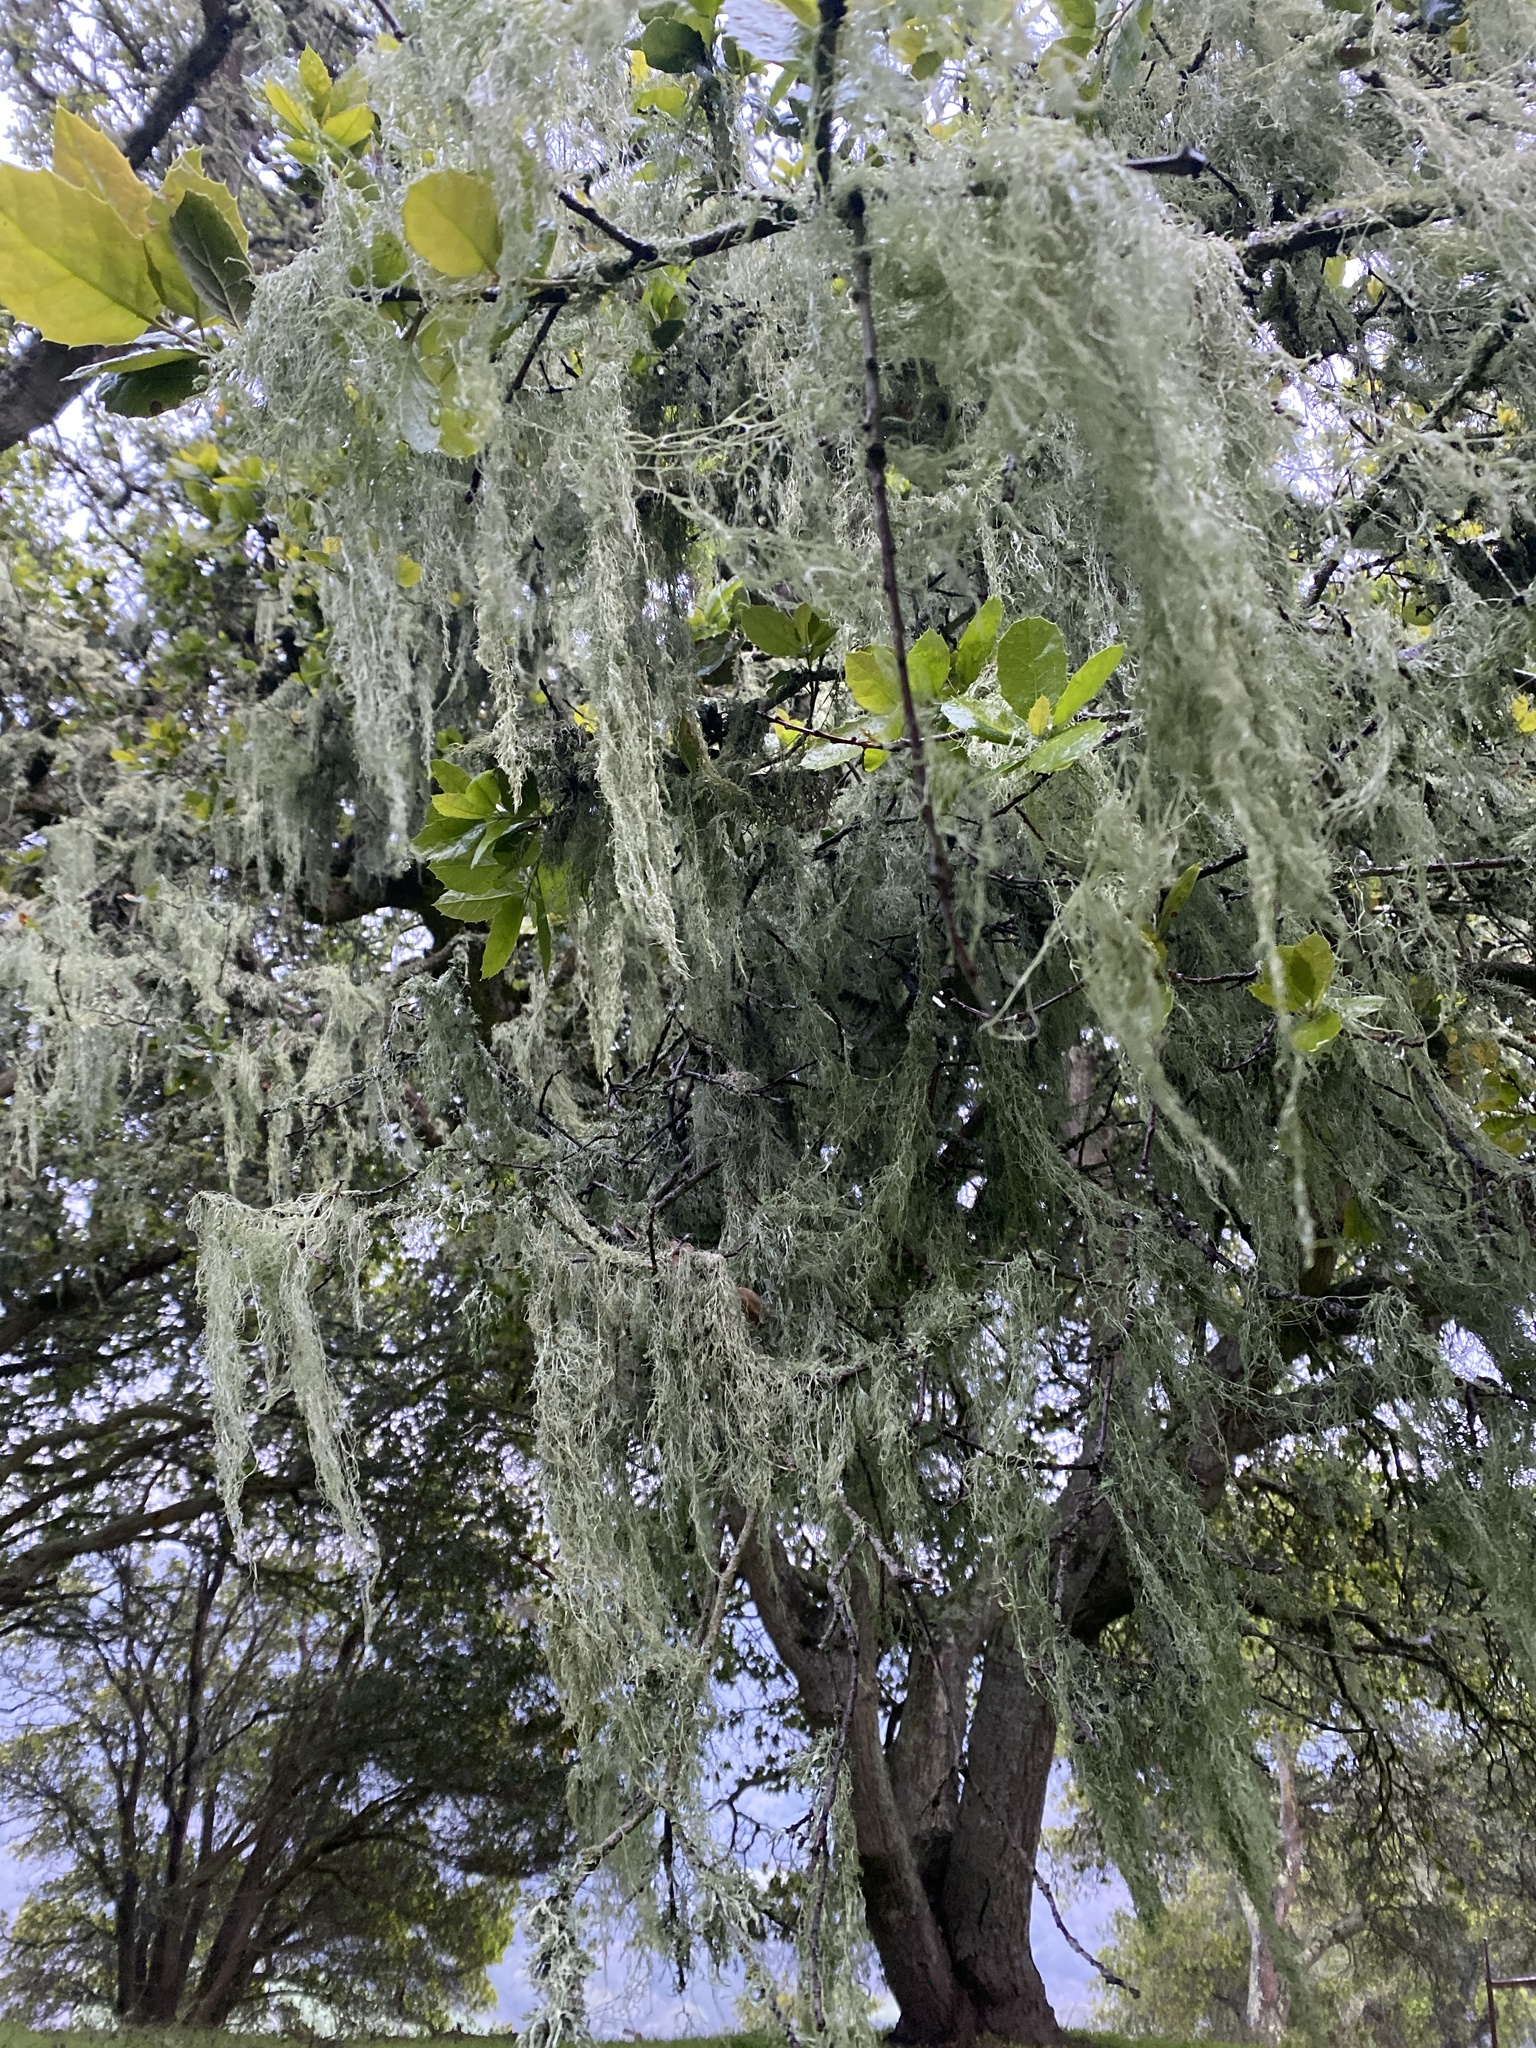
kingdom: Fungi
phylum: Ascomycota
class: Lecanoromycetes
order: Lecanorales
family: Ramalinaceae
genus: Ramalina
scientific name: Ramalina menziesii
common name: Lace lichen
